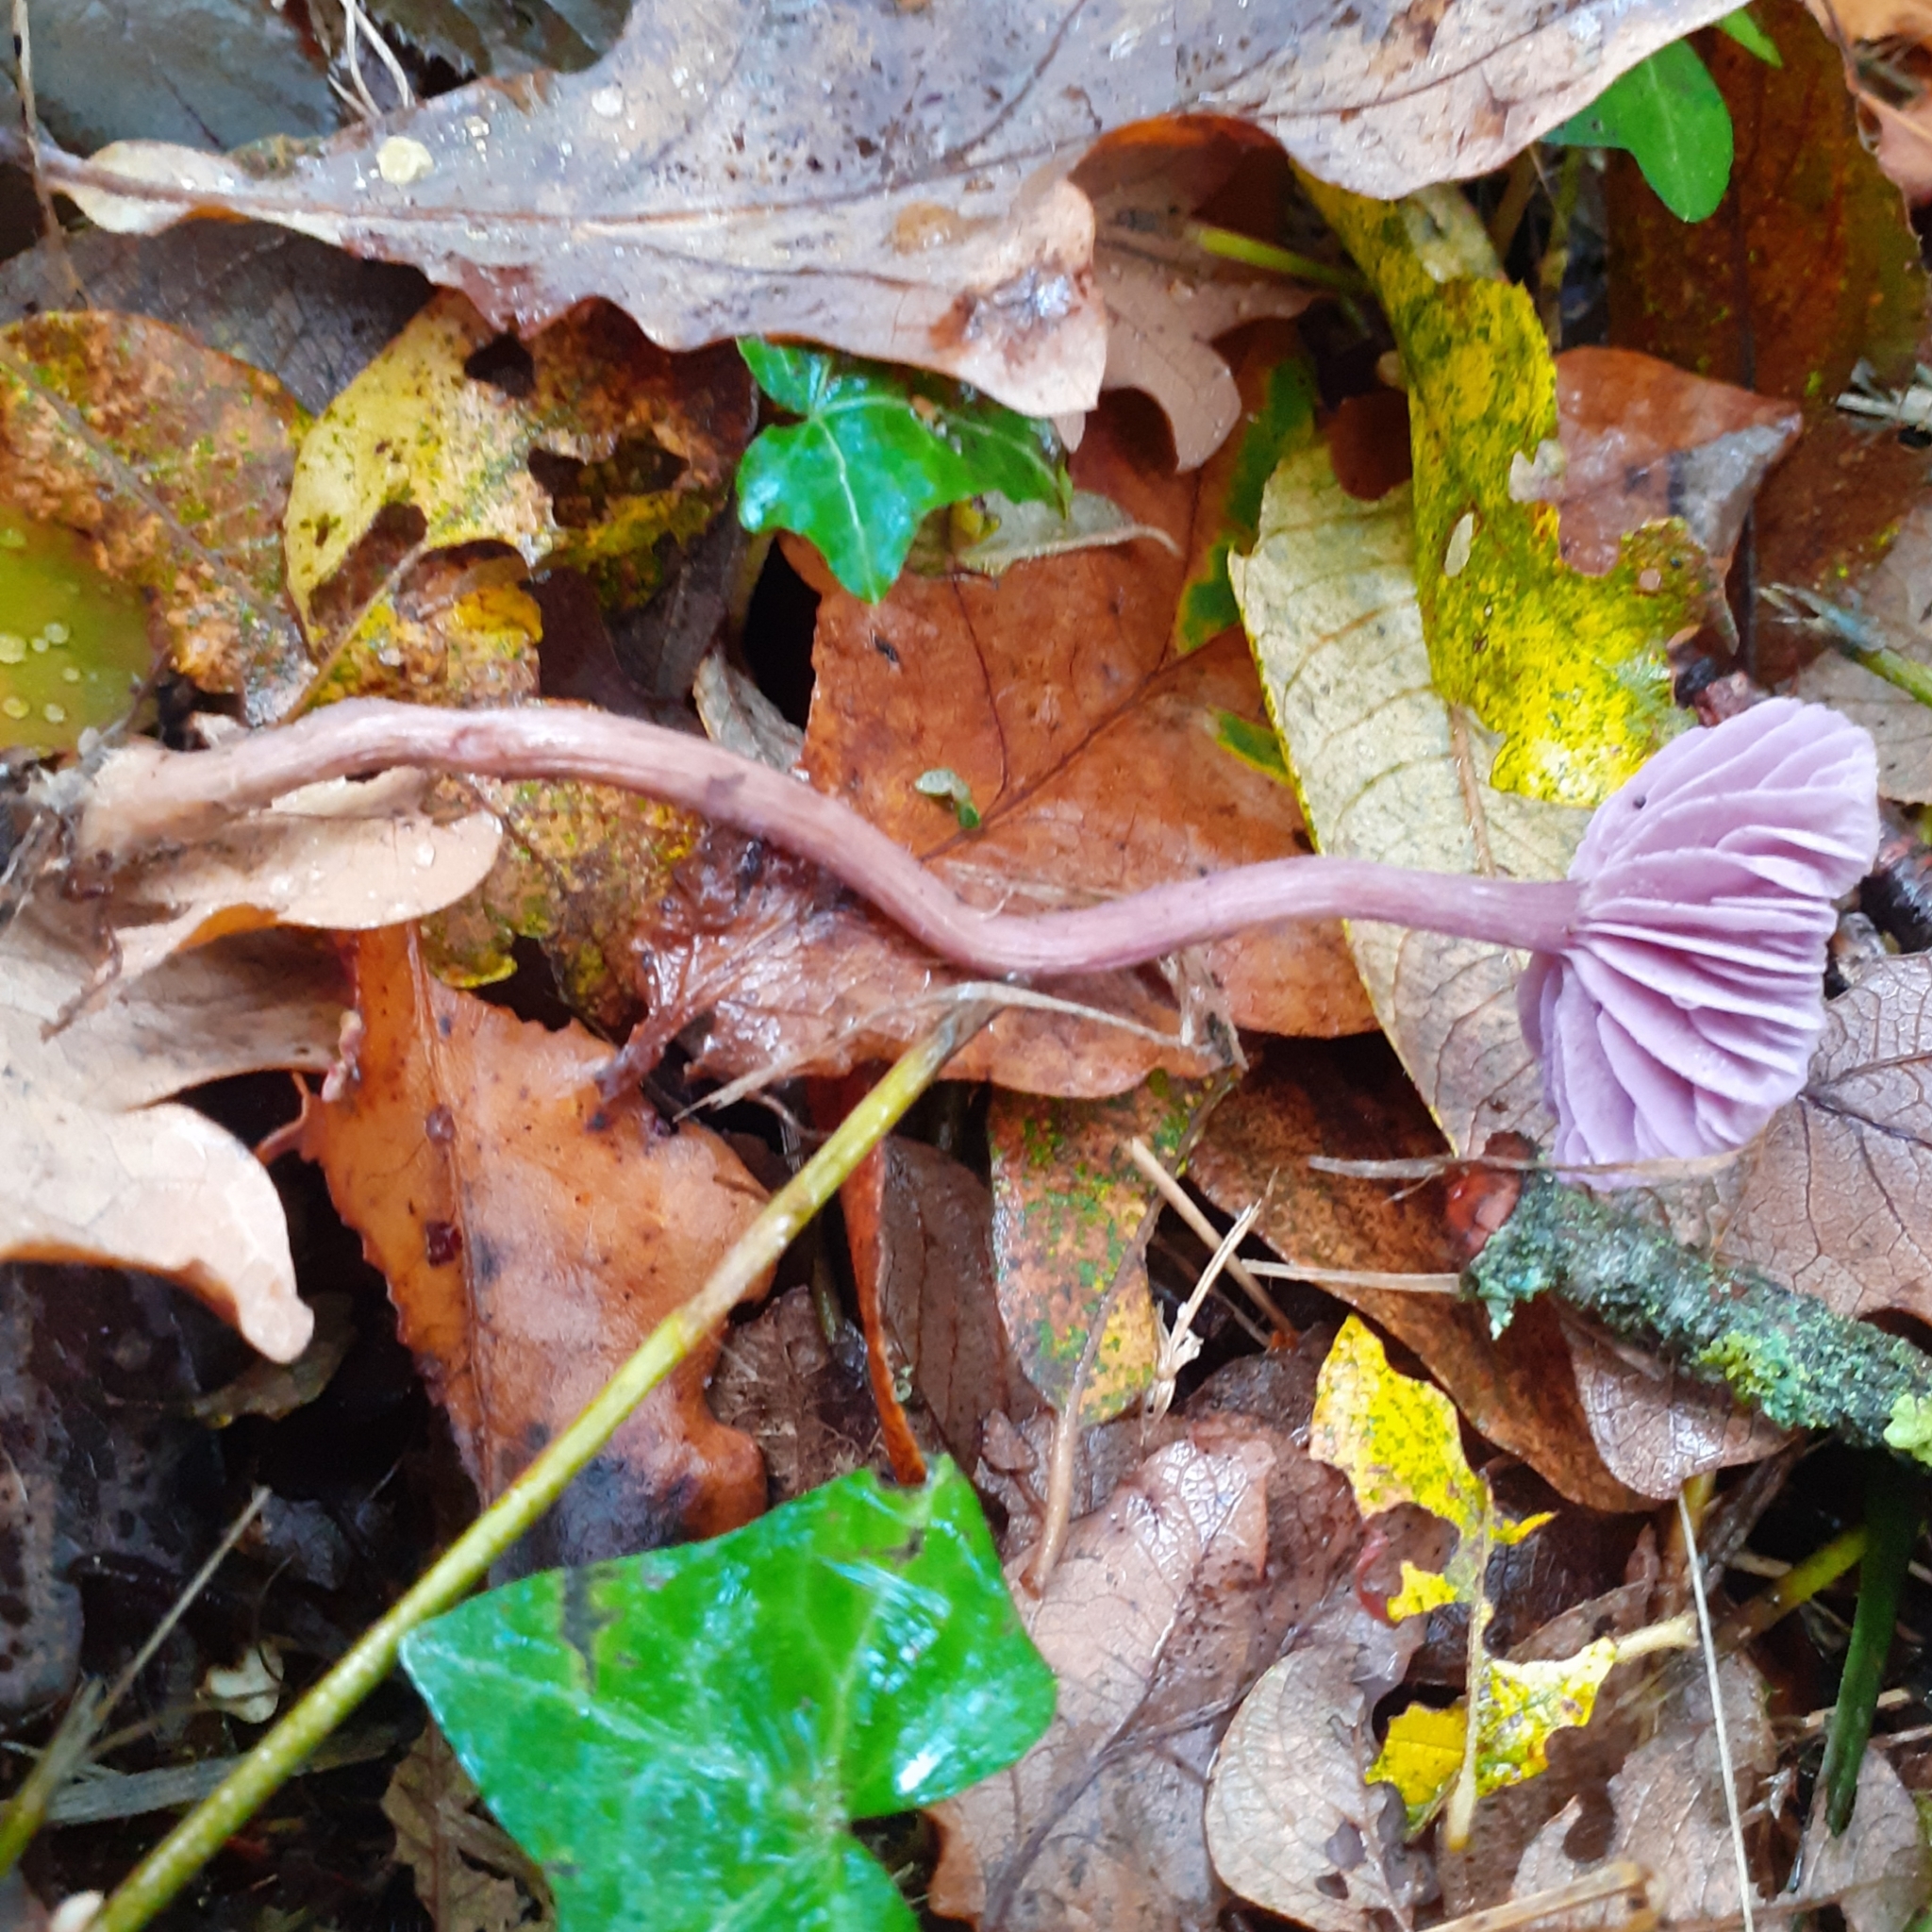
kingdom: Fungi
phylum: Basidiomycota
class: Agaricomycetes
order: Agaricales
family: Hydnangiaceae
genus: Laccaria
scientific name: Laccaria amethystina
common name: Amethyst deceiver
